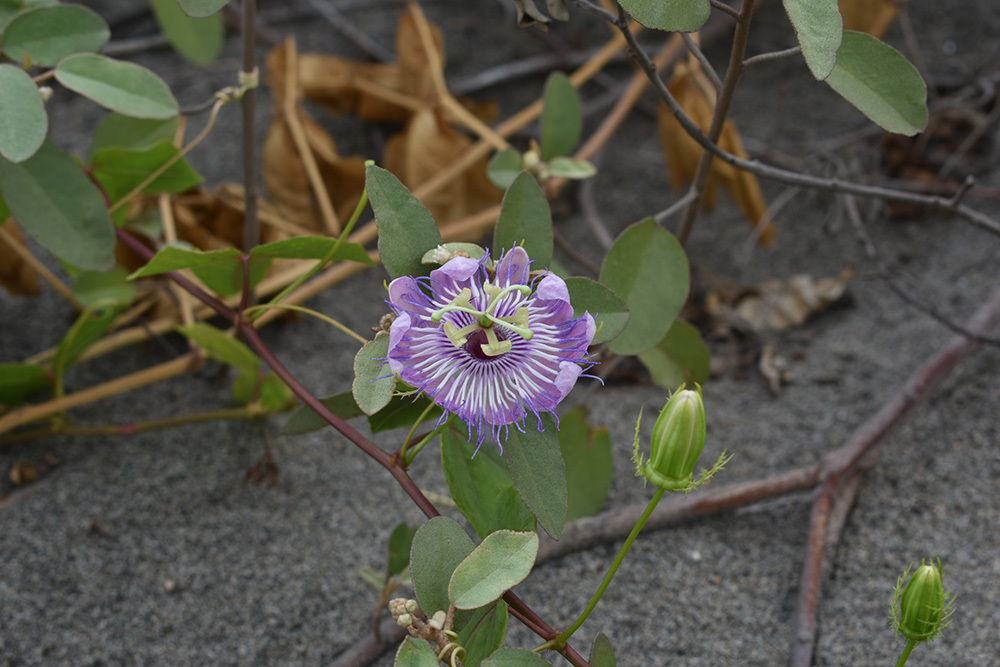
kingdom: Plantae
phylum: Tracheophyta
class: Magnoliopsida
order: Malpighiales
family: Passifloraceae
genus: Passiflora
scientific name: Passiflora ciliata
